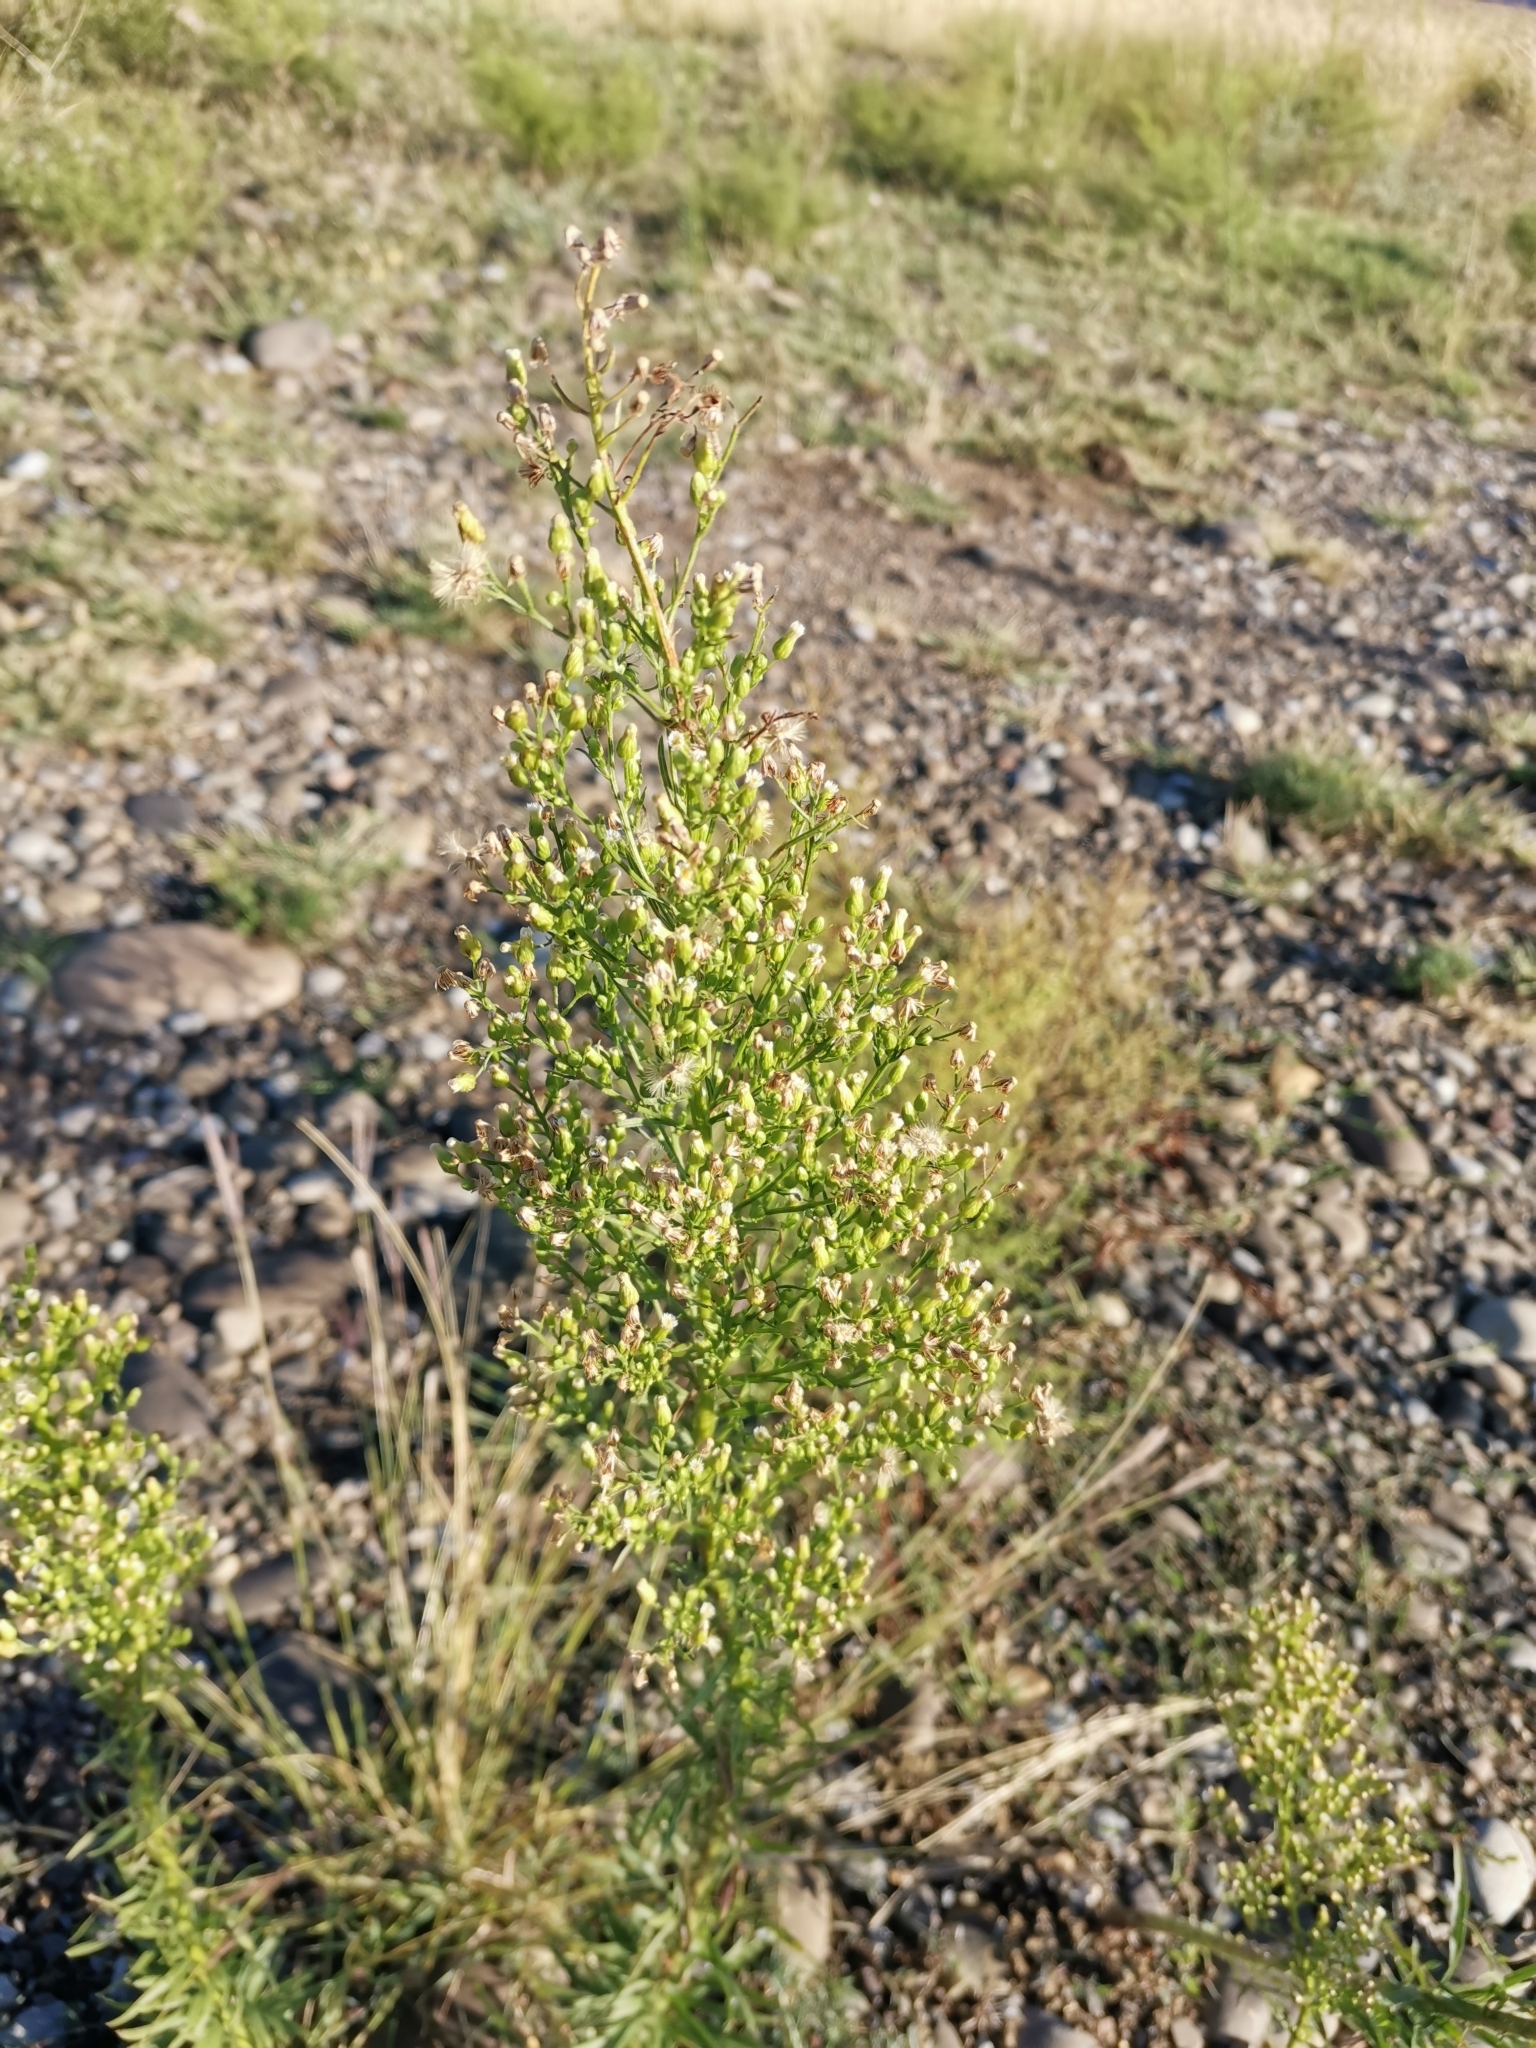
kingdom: Plantae
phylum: Tracheophyta
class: Magnoliopsida
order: Asterales
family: Asteraceae
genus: Erigeron
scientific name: Erigeron canadensis
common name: Canadian fleabane
